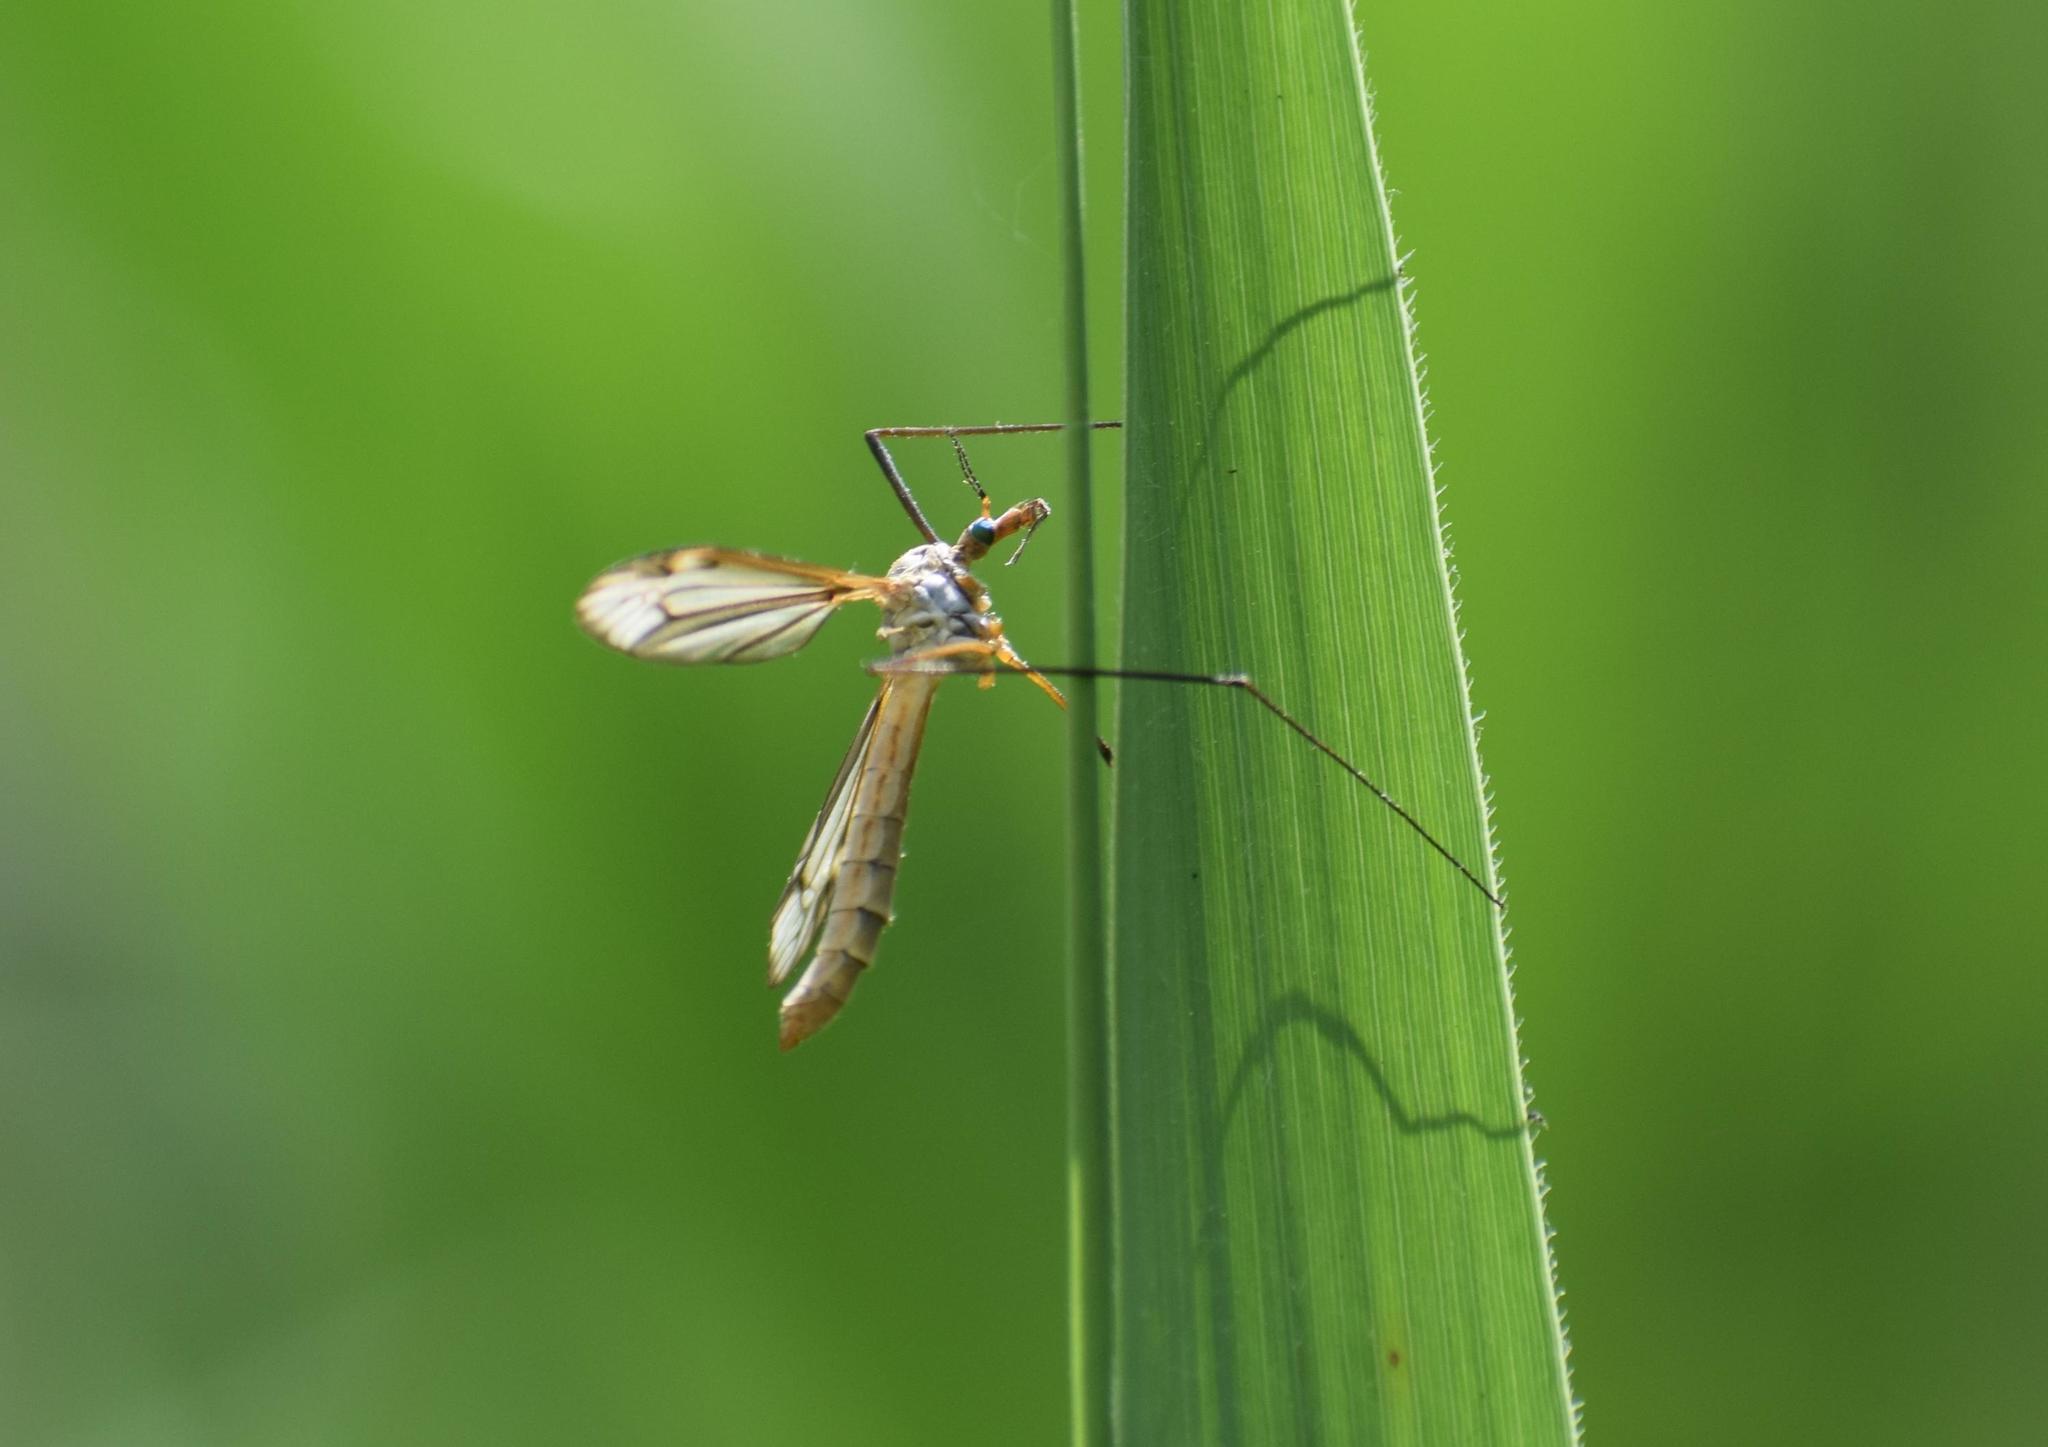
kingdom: Animalia
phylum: Arthropoda
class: Insecta
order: Diptera
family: Tipulidae
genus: Tipula
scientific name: Tipula paludosa
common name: European cranefly
